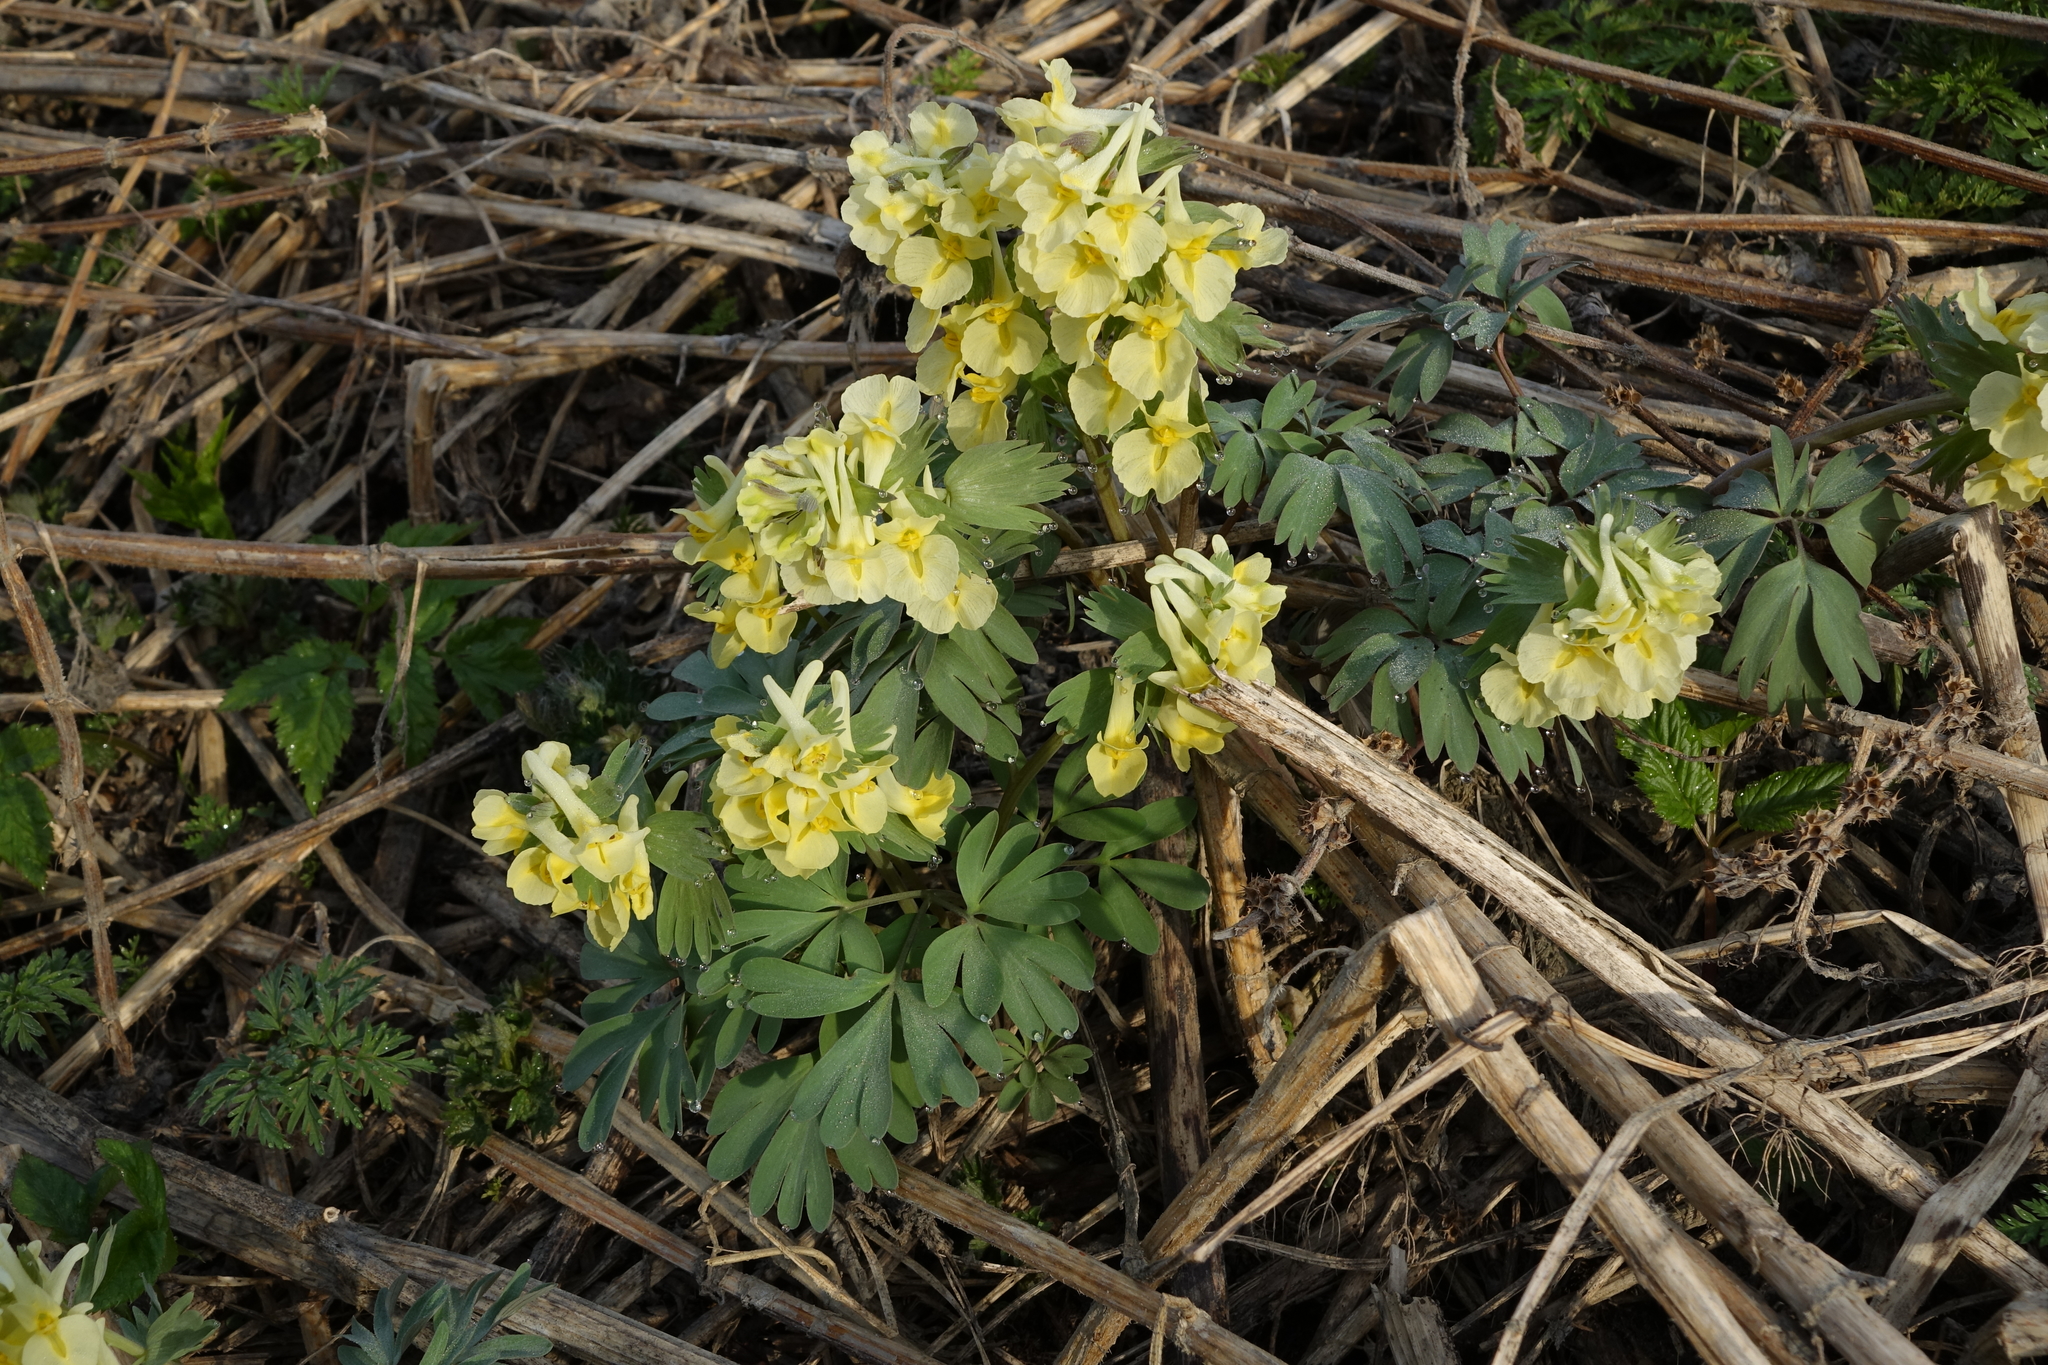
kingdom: Plantae
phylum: Tracheophyta
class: Magnoliopsida
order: Ranunculales
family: Papaveraceae
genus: Corydalis
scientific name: Corydalis bracteata
